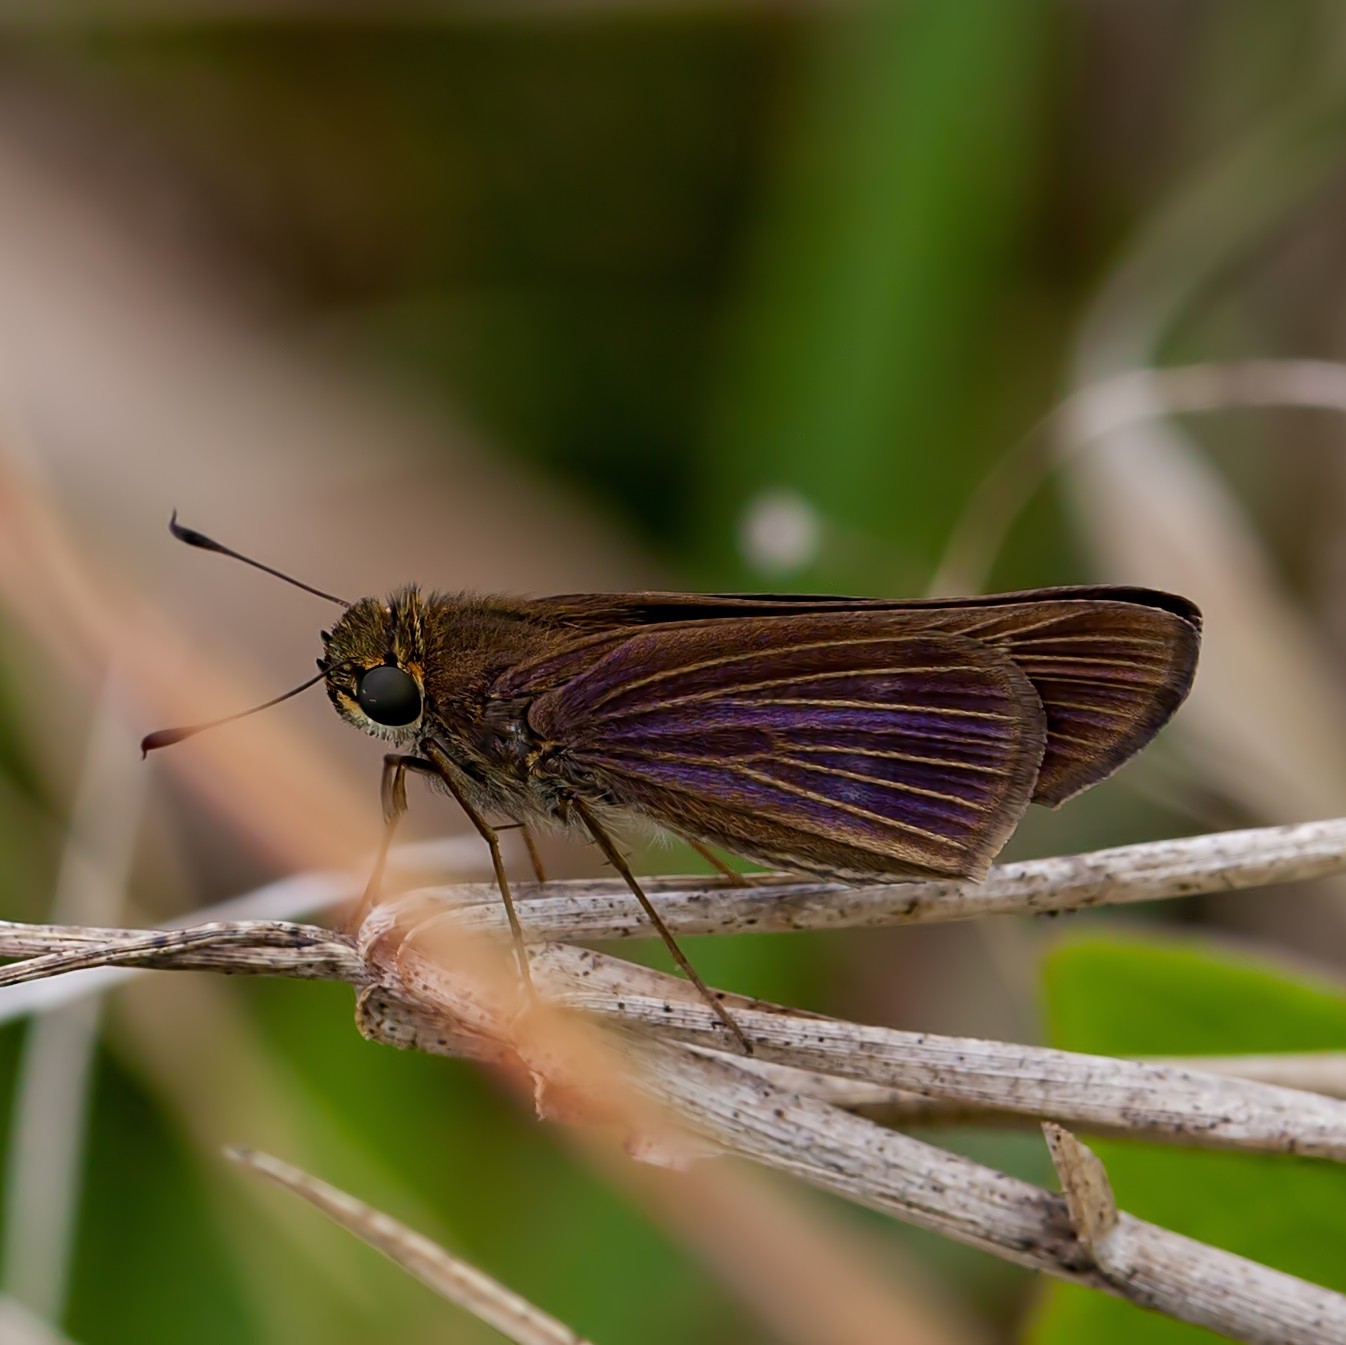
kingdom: Animalia
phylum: Arthropoda
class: Insecta
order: Lepidoptera
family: Hesperiidae
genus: Panoquina
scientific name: Panoquina ocola
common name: Ocola skipper
